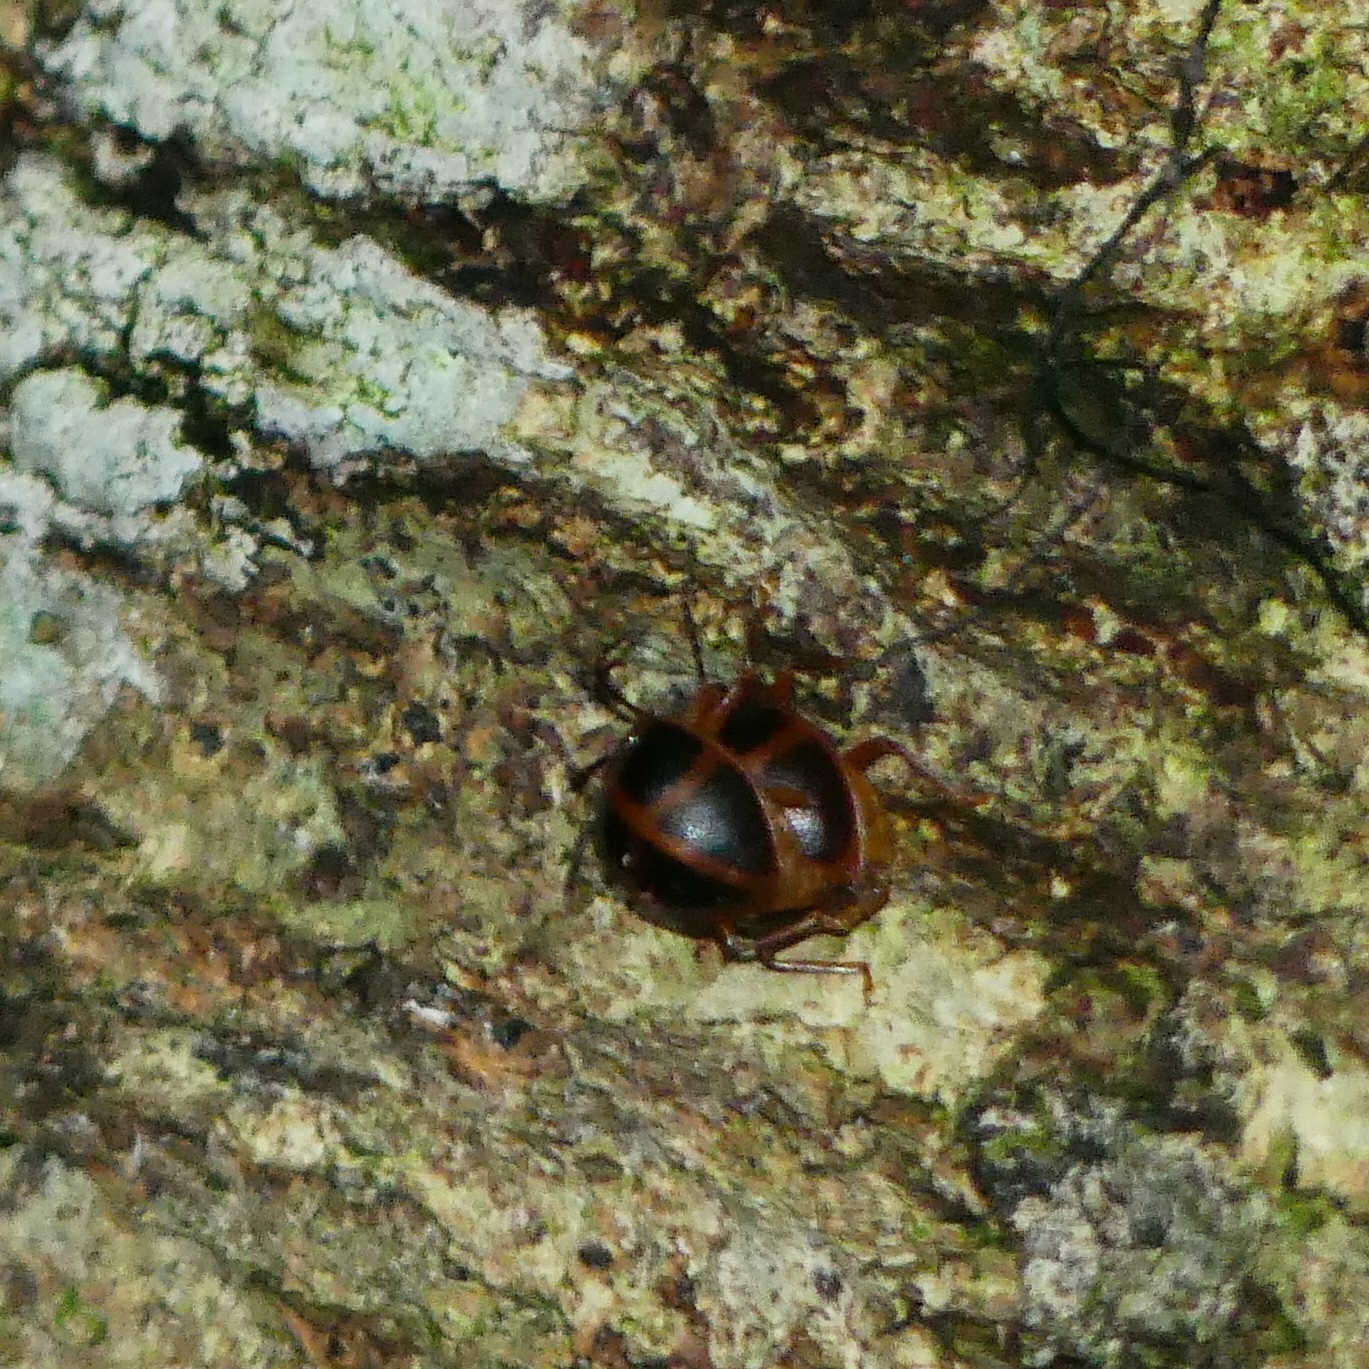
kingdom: Animalia
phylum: Arthropoda
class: Insecta
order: Coleoptera
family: Endomychidae
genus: Corynomalus
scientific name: Corynomalus vestitus
